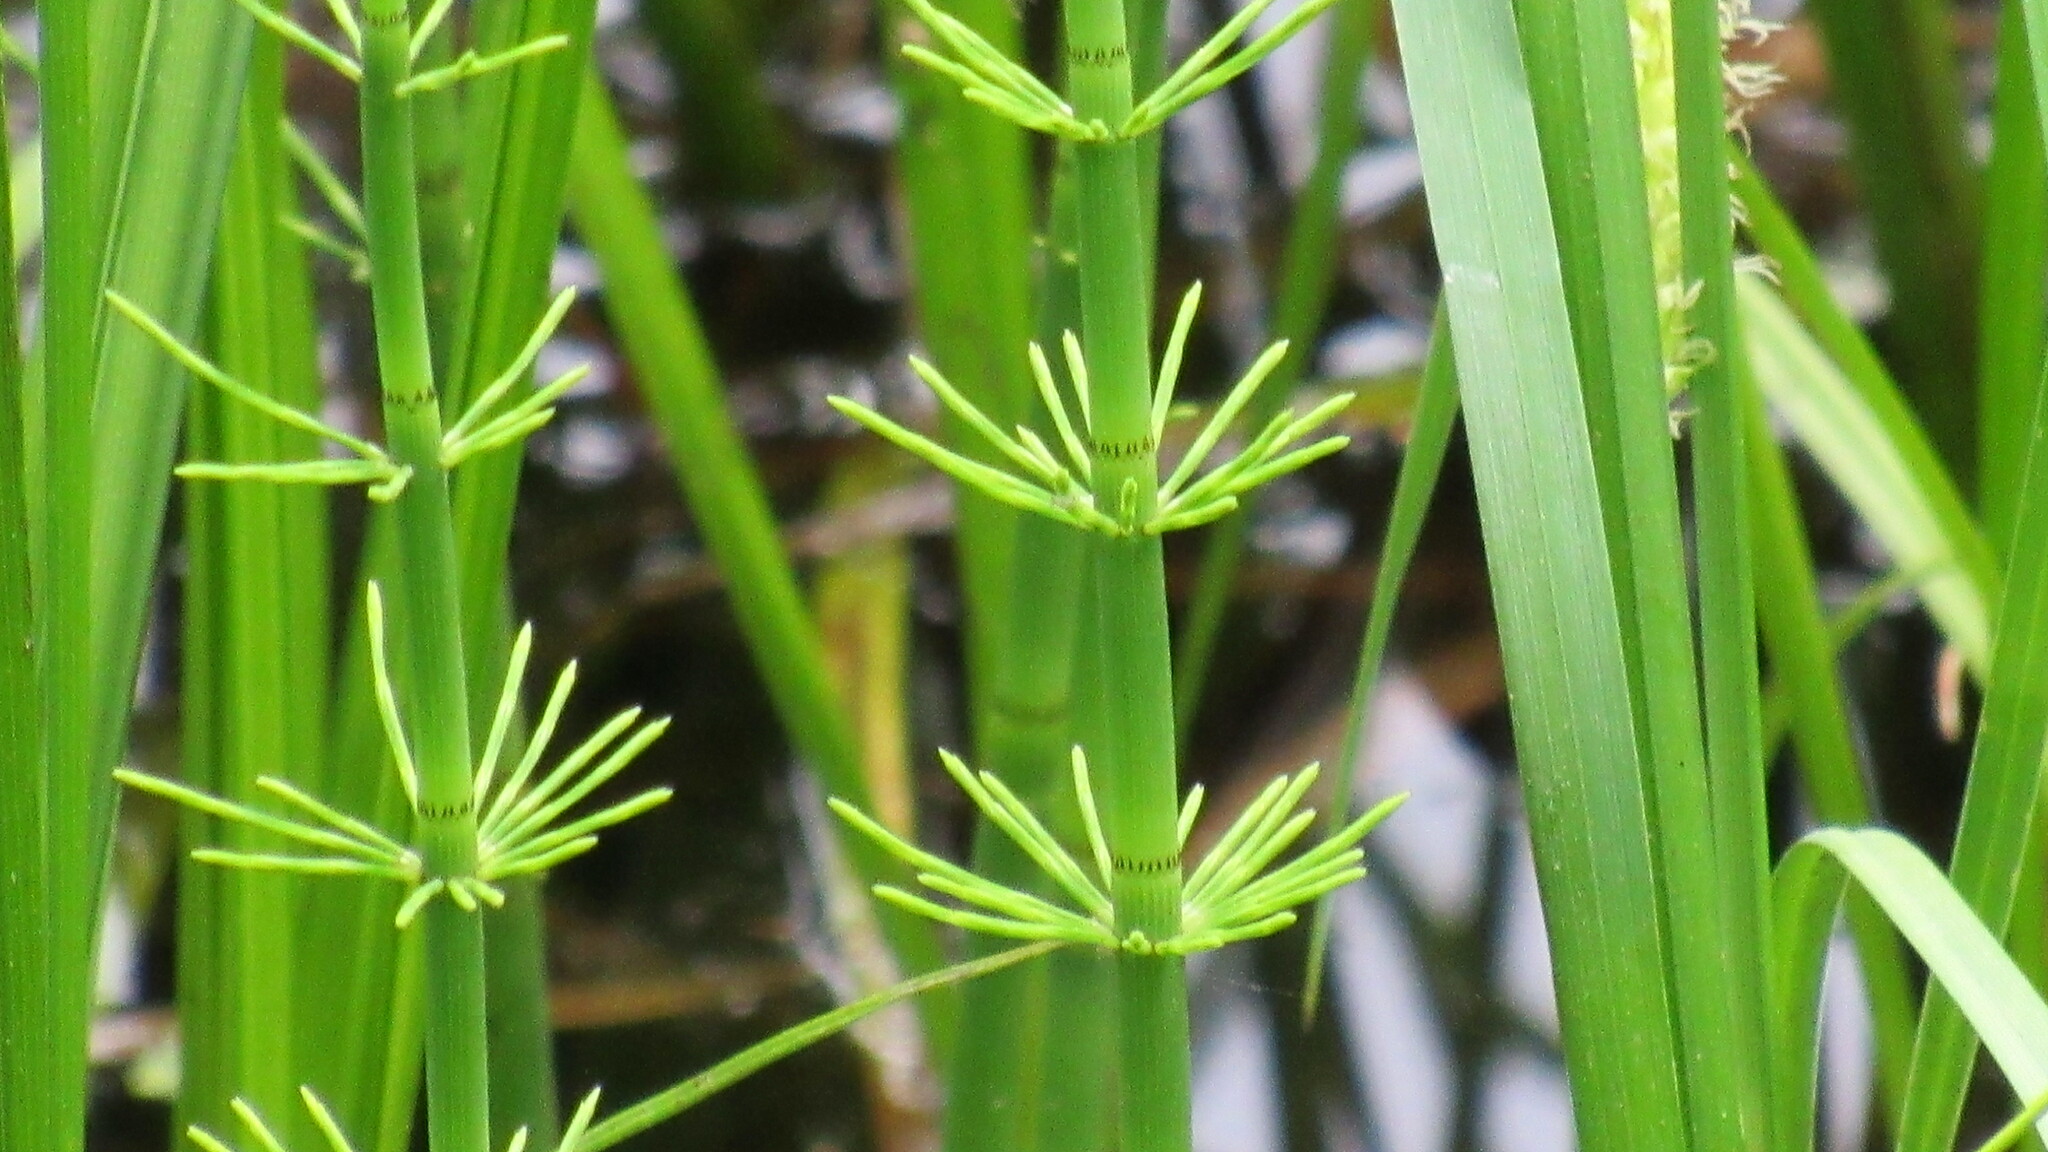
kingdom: Plantae
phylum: Tracheophyta
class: Polypodiopsida
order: Equisetales
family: Equisetaceae
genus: Equisetum
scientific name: Equisetum fluviatile
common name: Water horsetail
